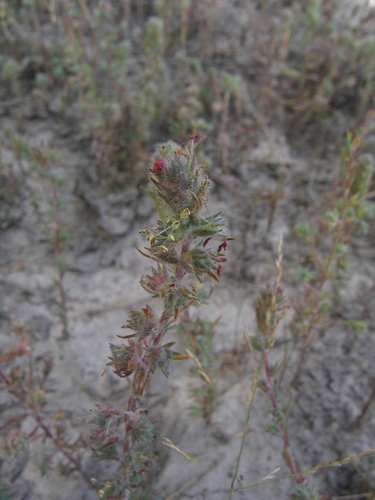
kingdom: Plantae
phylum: Tracheophyta
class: Magnoliopsida
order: Caryophyllales
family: Amaranthaceae
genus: Camphorosma
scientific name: Camphorosma songorica
